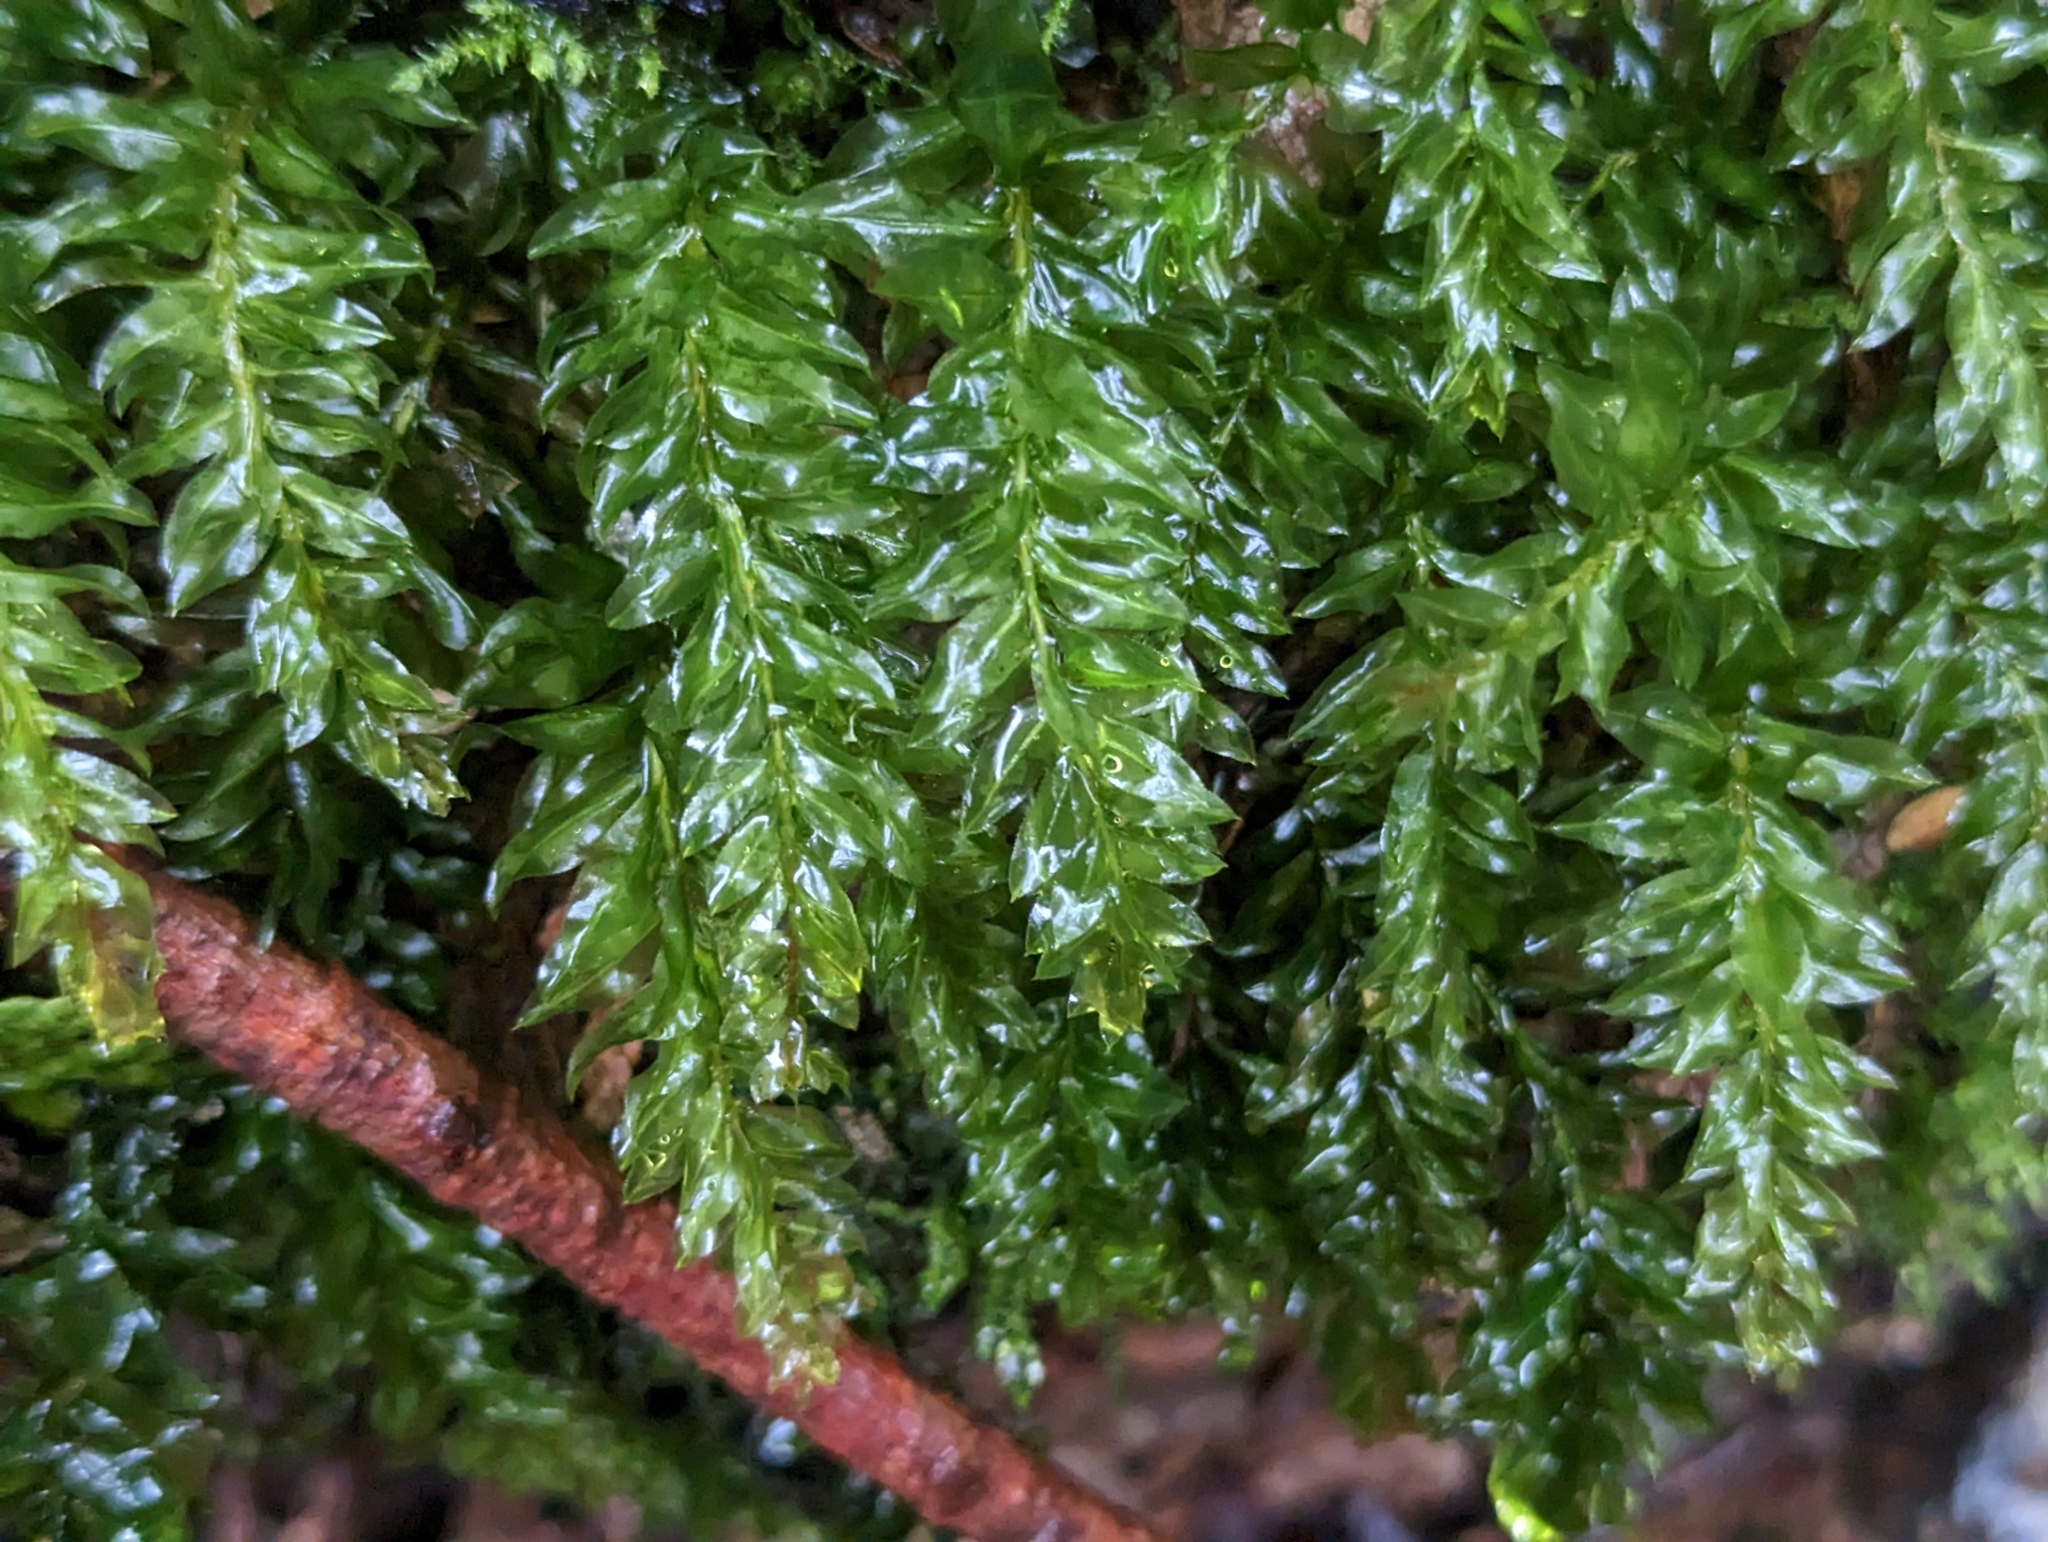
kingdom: Plantae
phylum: Bryophyta
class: Bryopsida
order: Bryales
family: Mniaceae
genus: Plagiomnium
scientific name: Plagiomnium insigne
